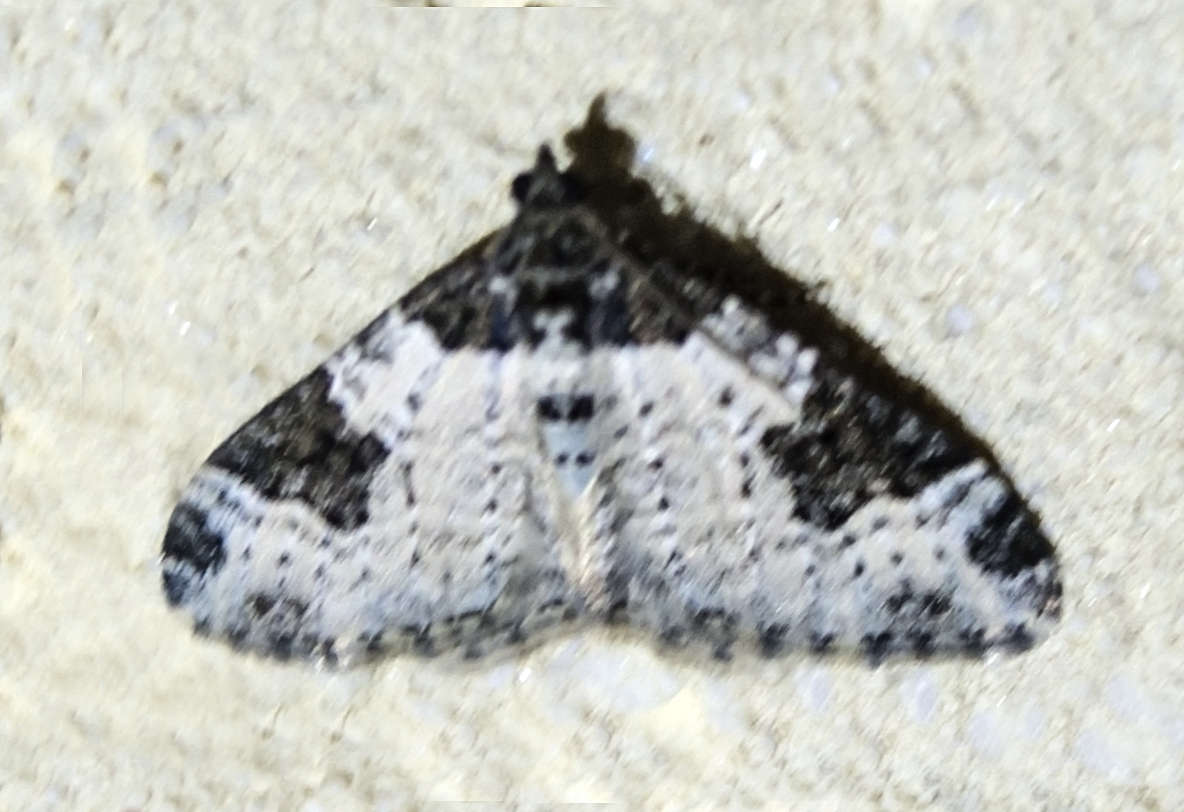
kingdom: Animalia
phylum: Arthropoda
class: Insecta
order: Lepidoptera
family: Geometridae
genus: Xanthorhoe
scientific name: Xanthorhoe fluctuata
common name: Garden carpet
